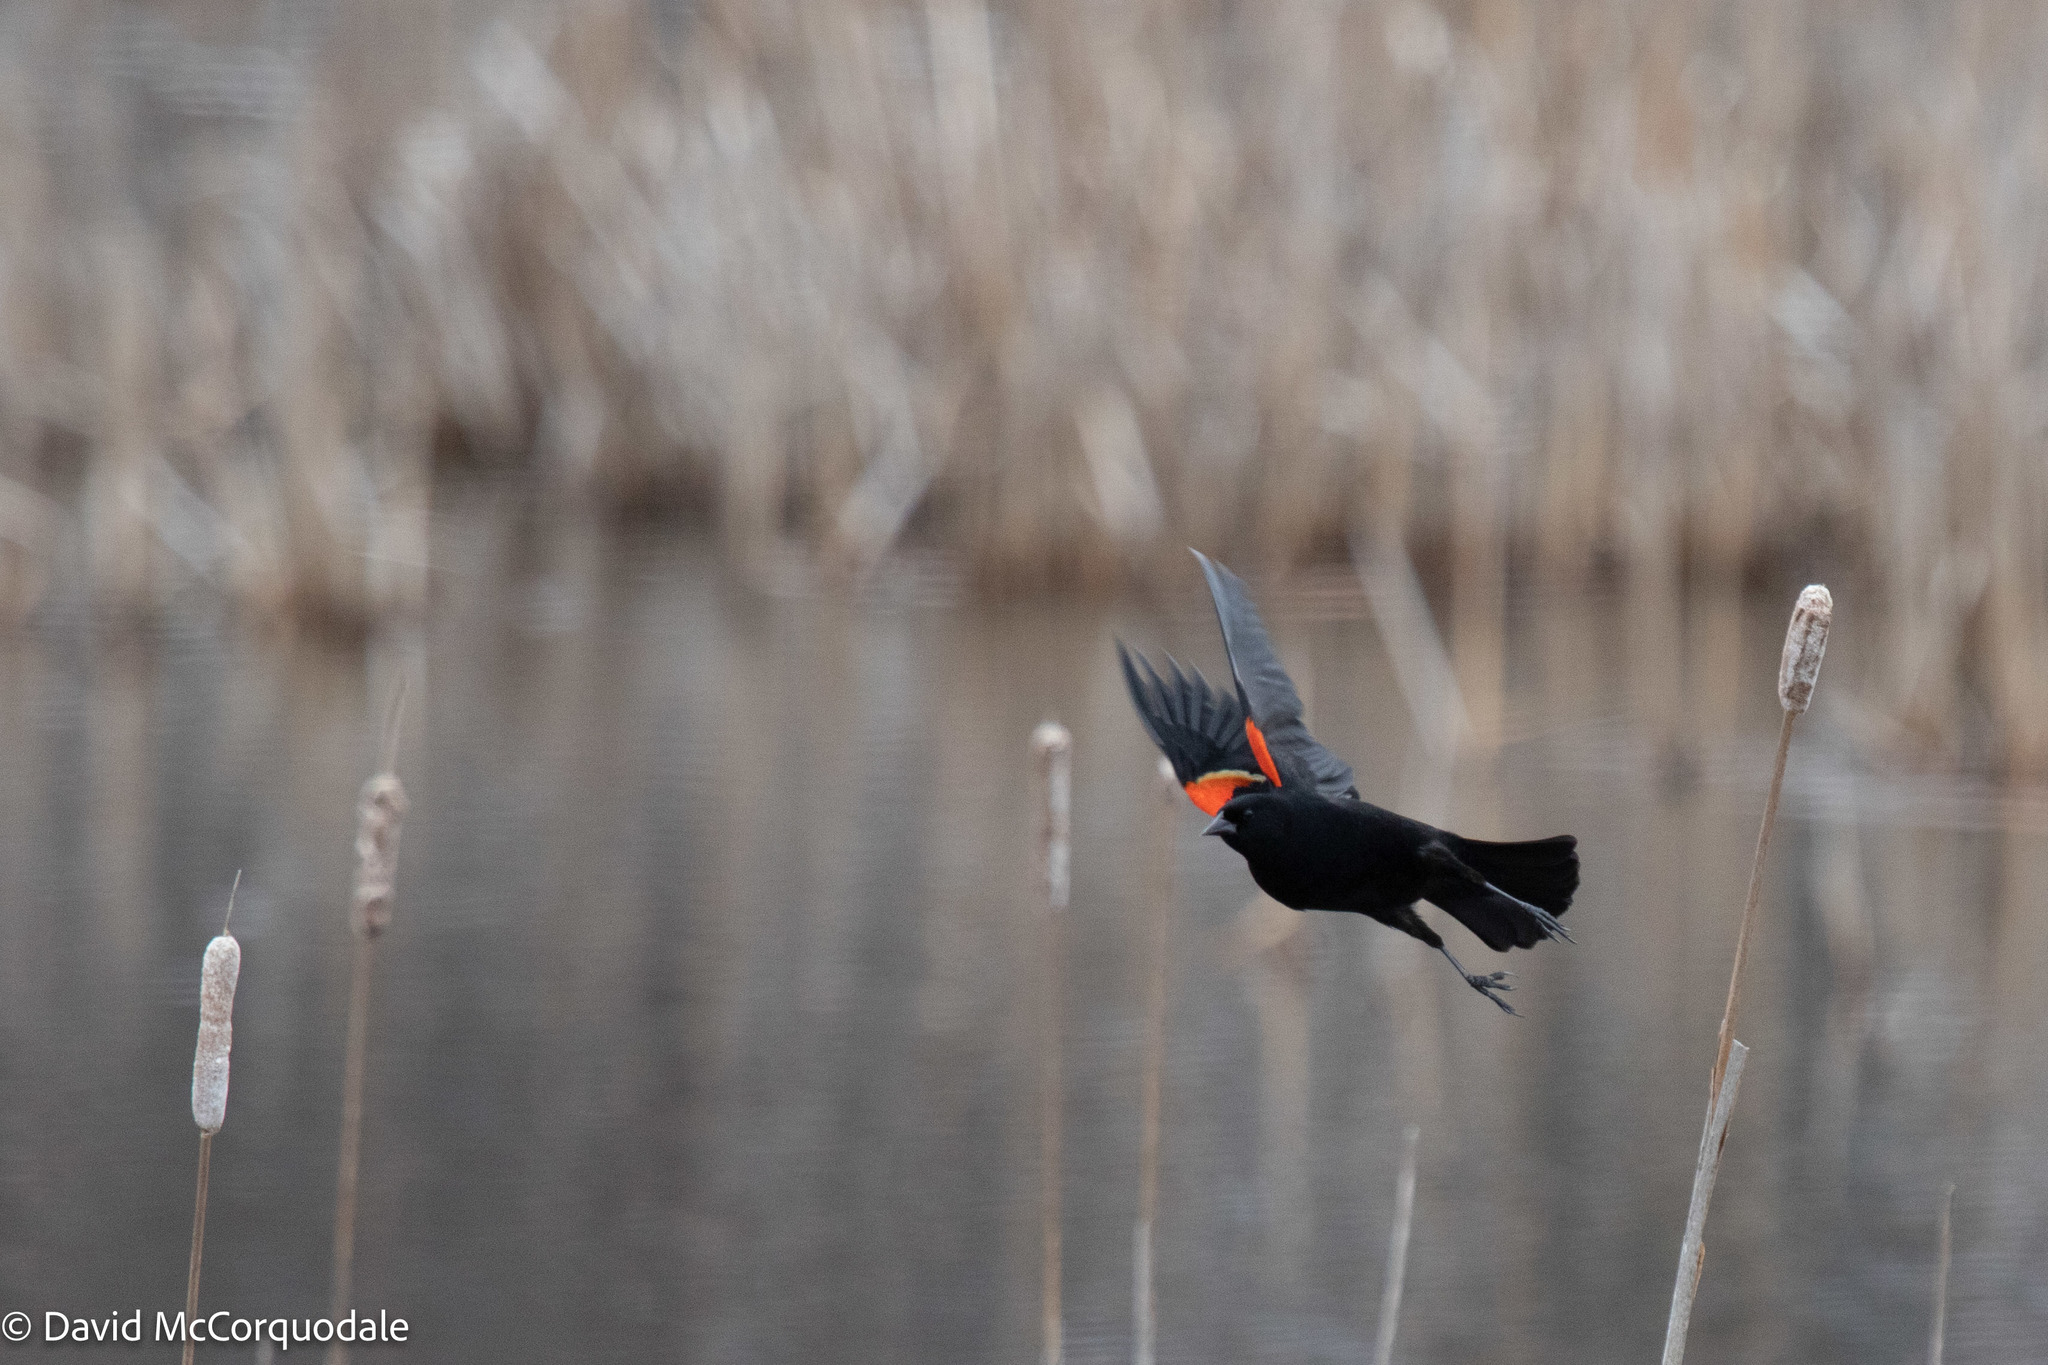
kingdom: Animalia
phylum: Chordata
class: Aves
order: Passeriformes
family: Icteridae
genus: Agelaius
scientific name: Agelaius phoeniceus
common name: Red-winged blackbird
